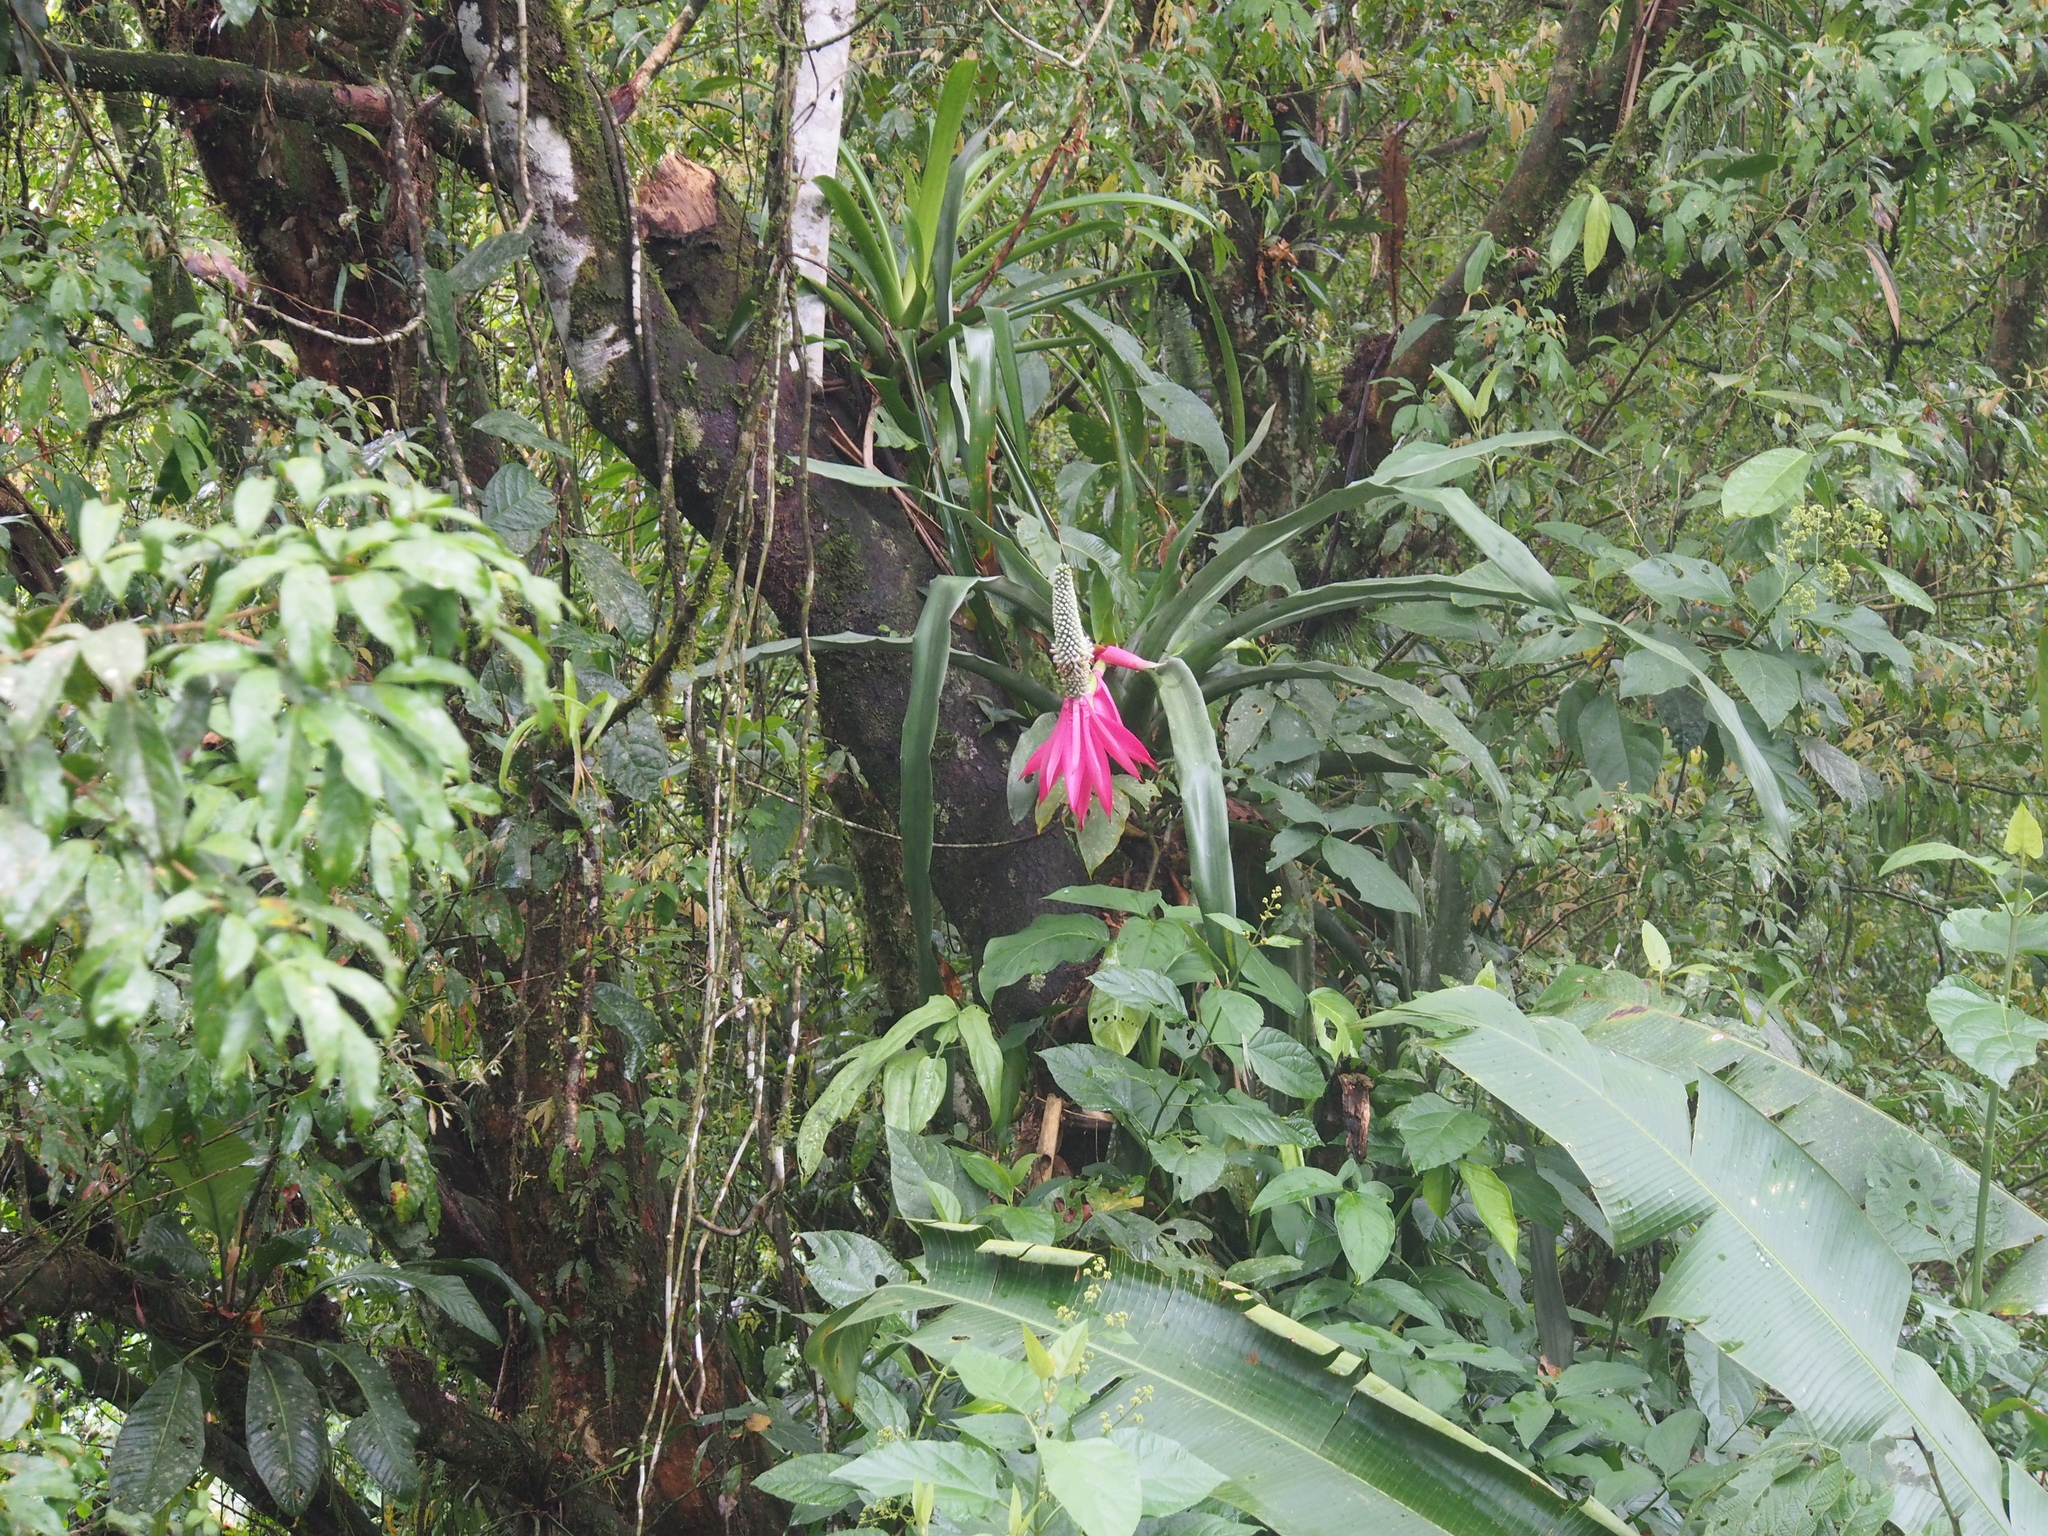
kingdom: Plantae
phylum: Tracheophyta
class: Liliopsida
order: Poales
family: Bromeliaceae
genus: Aechmea
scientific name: Aechmea mariae-reginae
